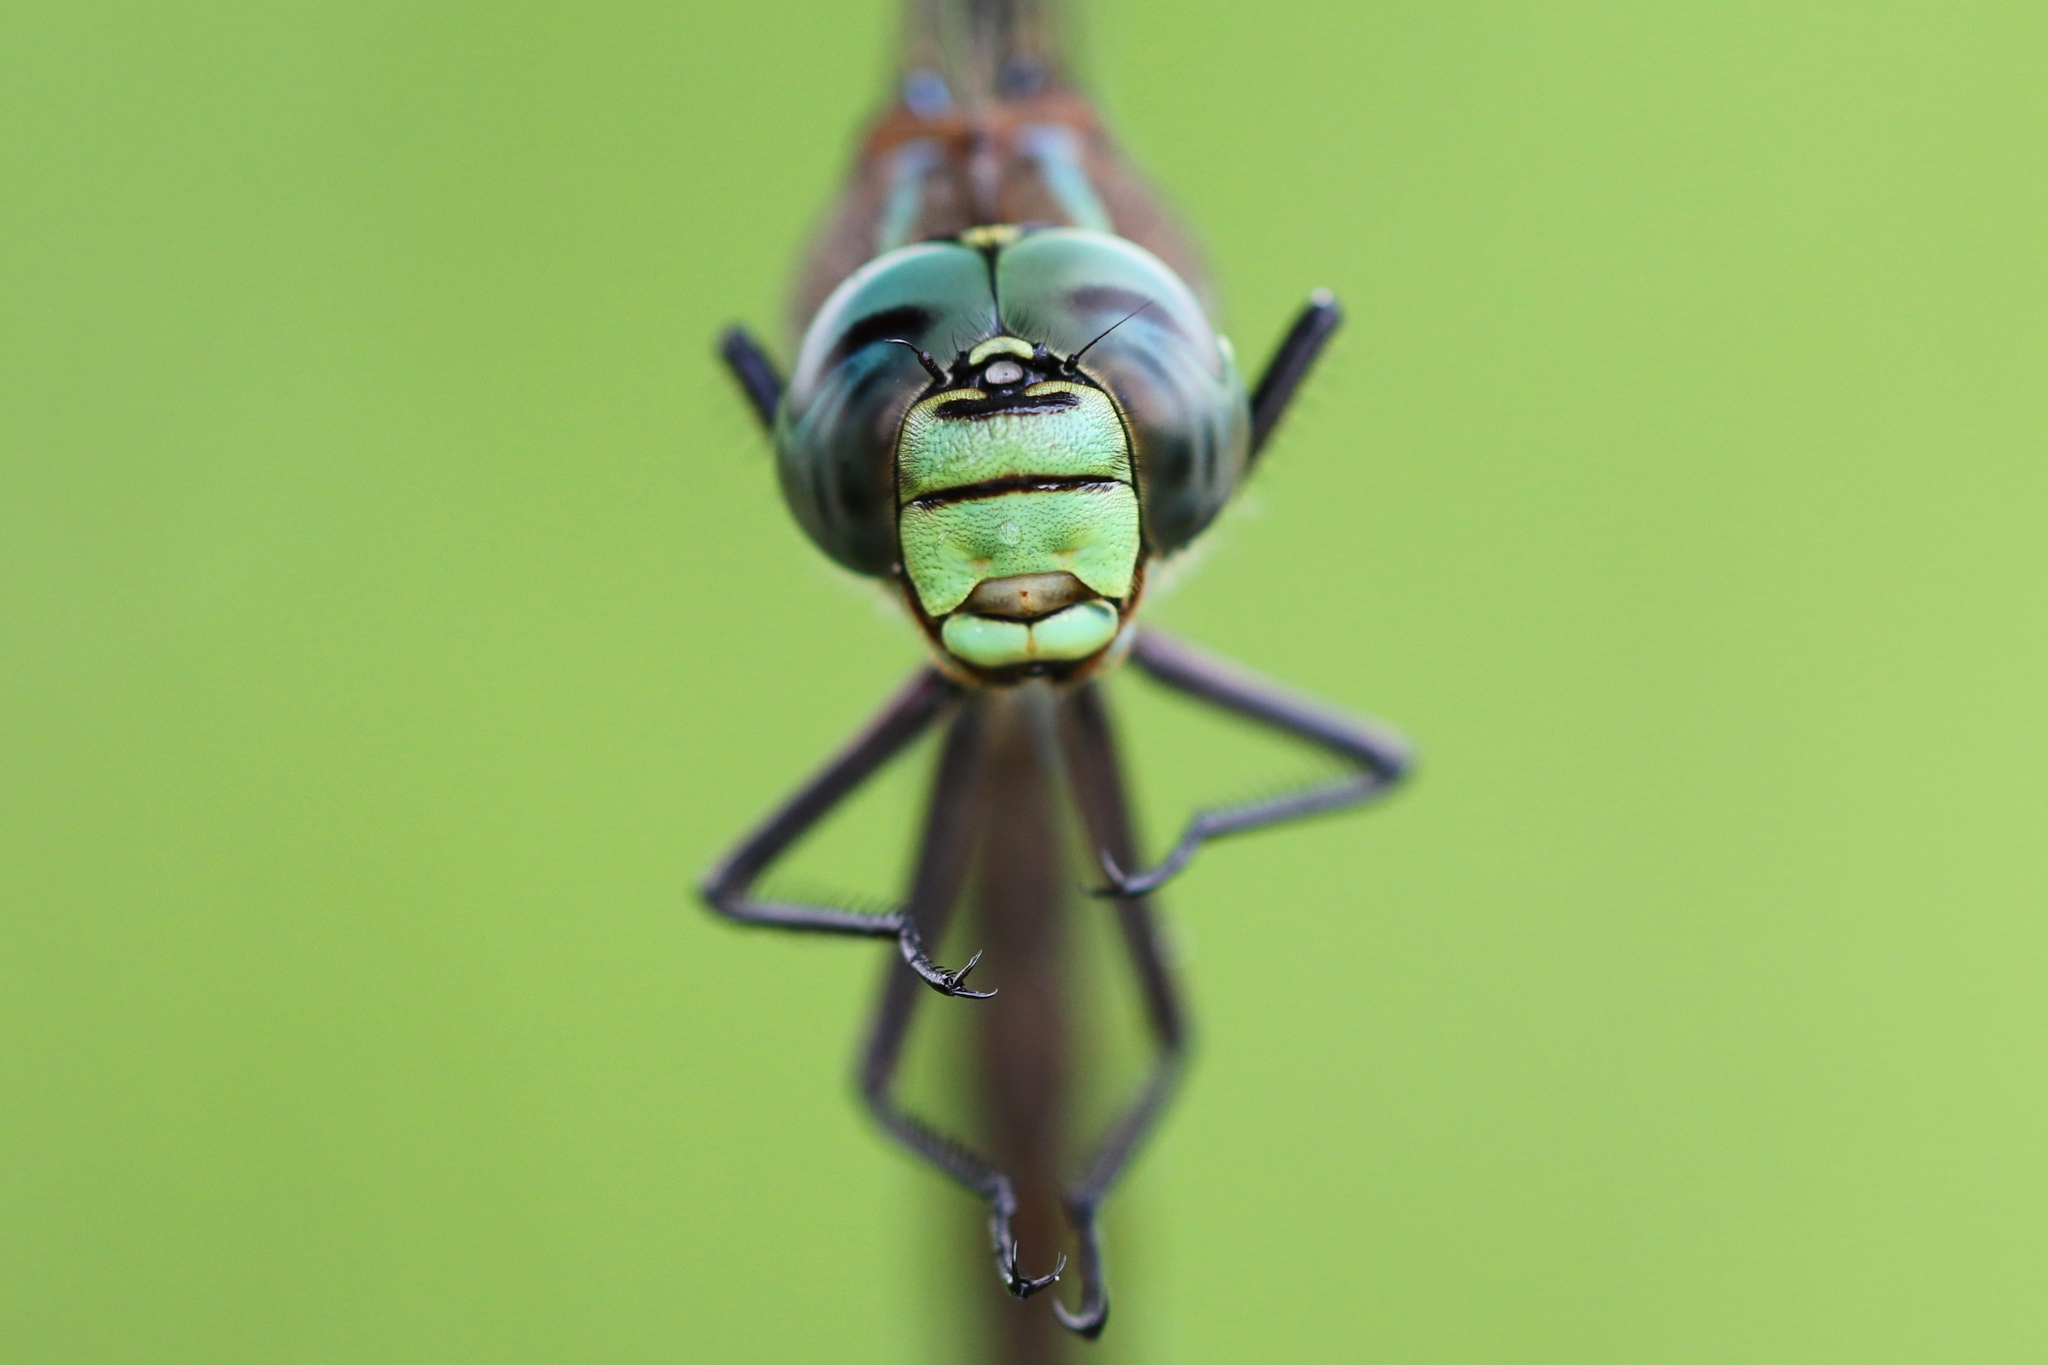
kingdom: Animalia
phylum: Arthropoda
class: Insecta
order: Odonata
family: Aeshnidae
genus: Aeshna
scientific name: Aeshna eremita
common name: Lake darner
